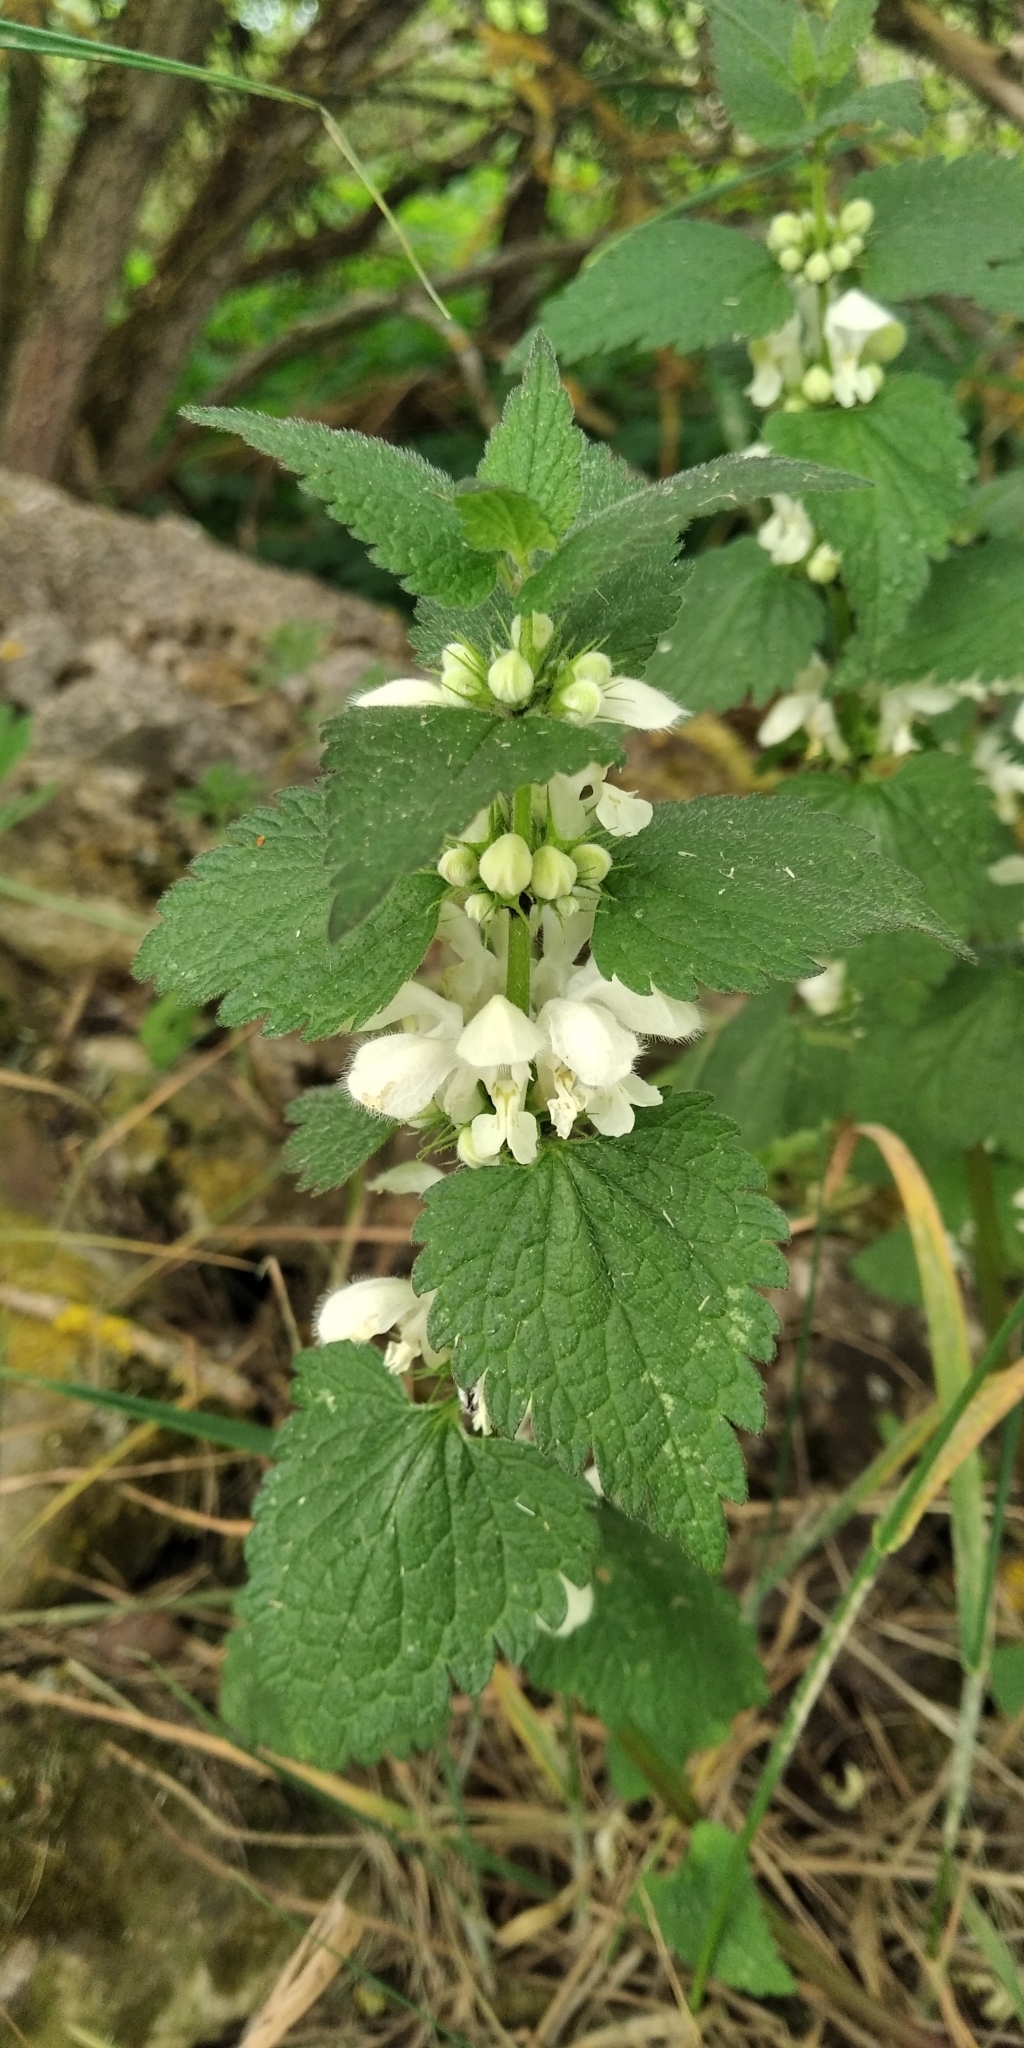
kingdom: Plantae
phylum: Tracheophyta
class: Magnoliopsida
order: Lamiales
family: Lamiaceae
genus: Lamium
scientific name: Lamium album
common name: White dead-nettle
